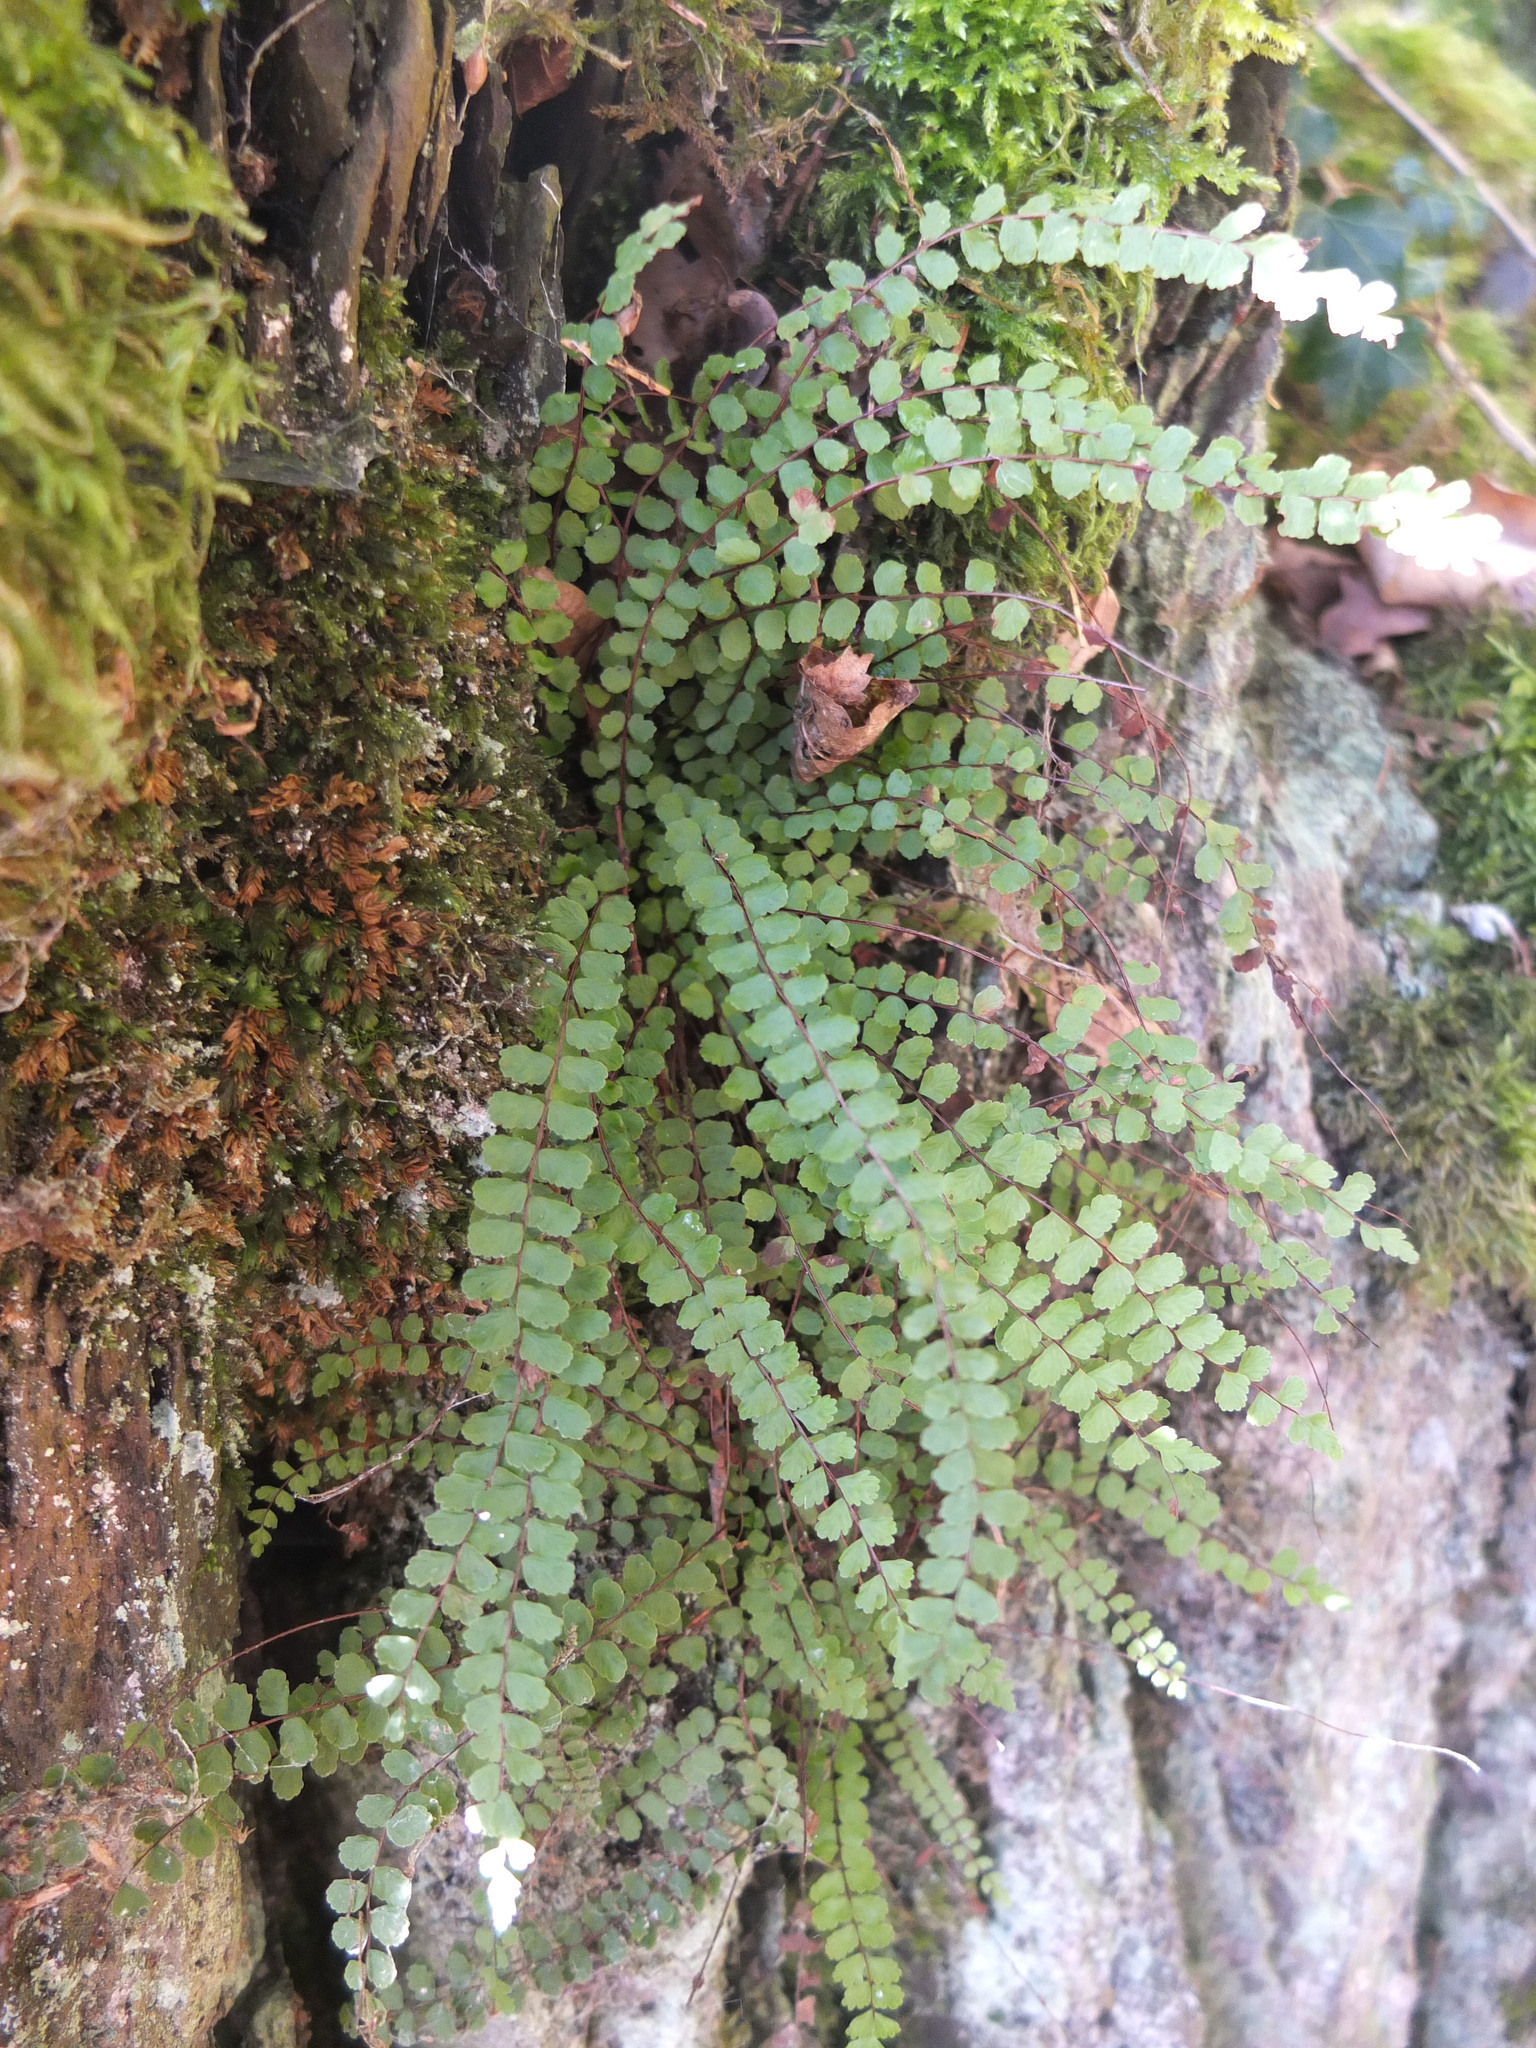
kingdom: Plantae
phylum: Tracheophyta
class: Polypodiopsida
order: Polypodiales
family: Aspleniaceae
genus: Asplenium
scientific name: Asplenium trichomanes
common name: Maidenhair spleenwort
